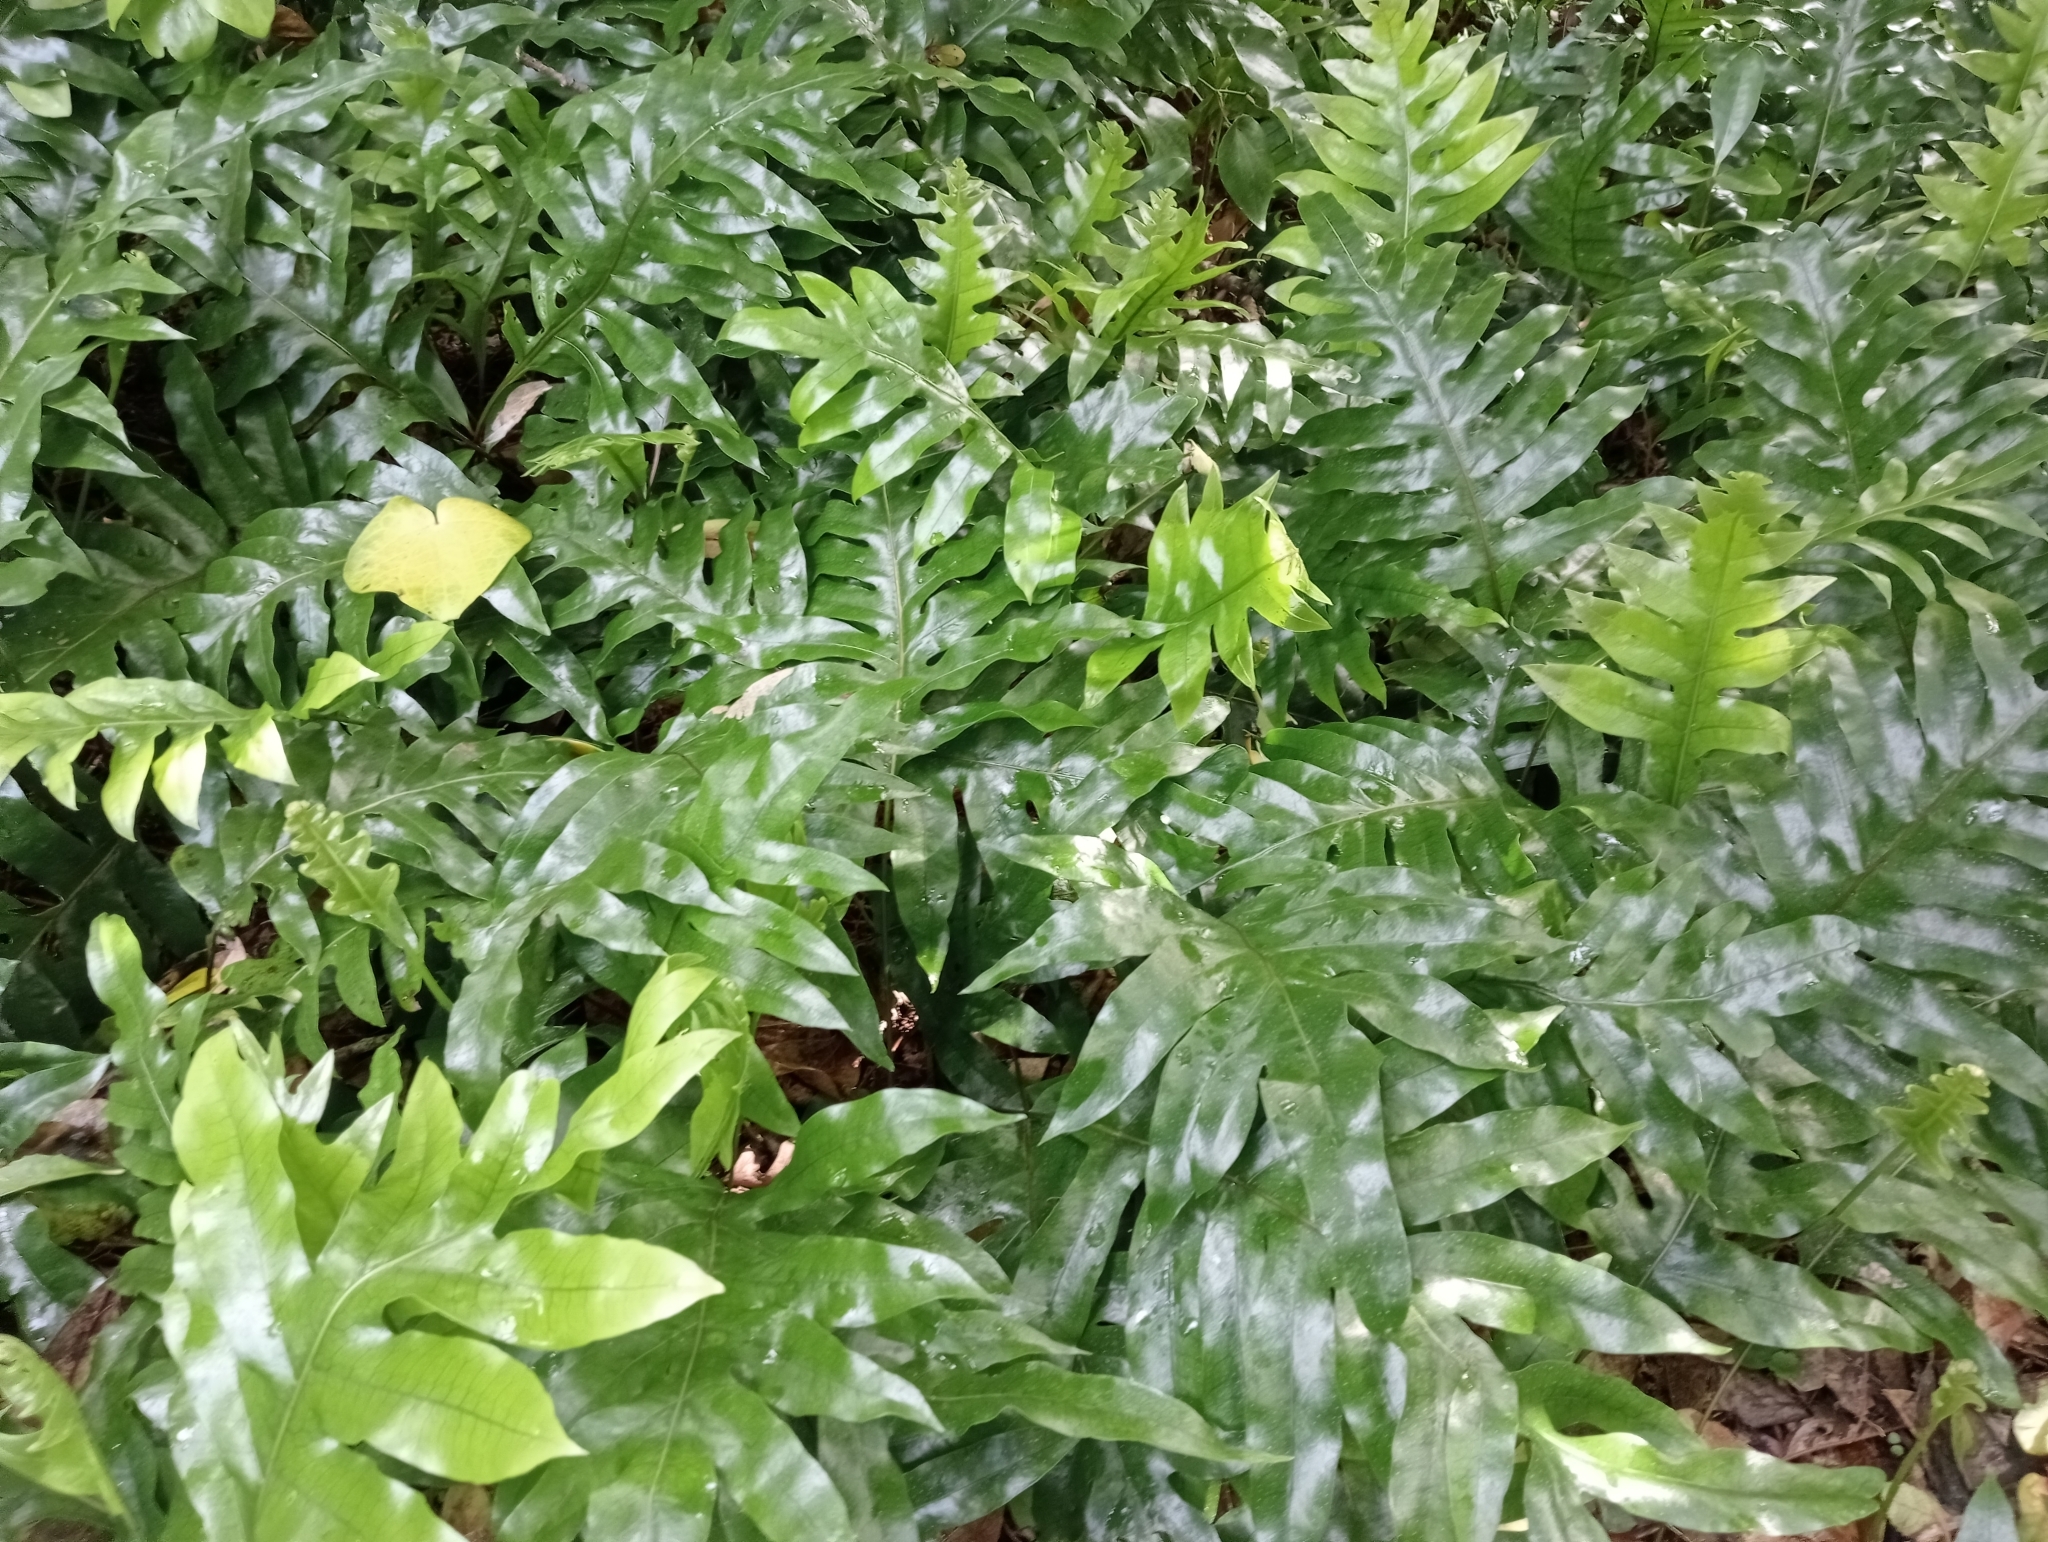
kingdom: Plantae
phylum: Tracheophyta
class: Polypodiopsida
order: Polypodiales
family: Polypodiaceae
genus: Lecanopteris
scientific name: Lecanopteris pustulata
